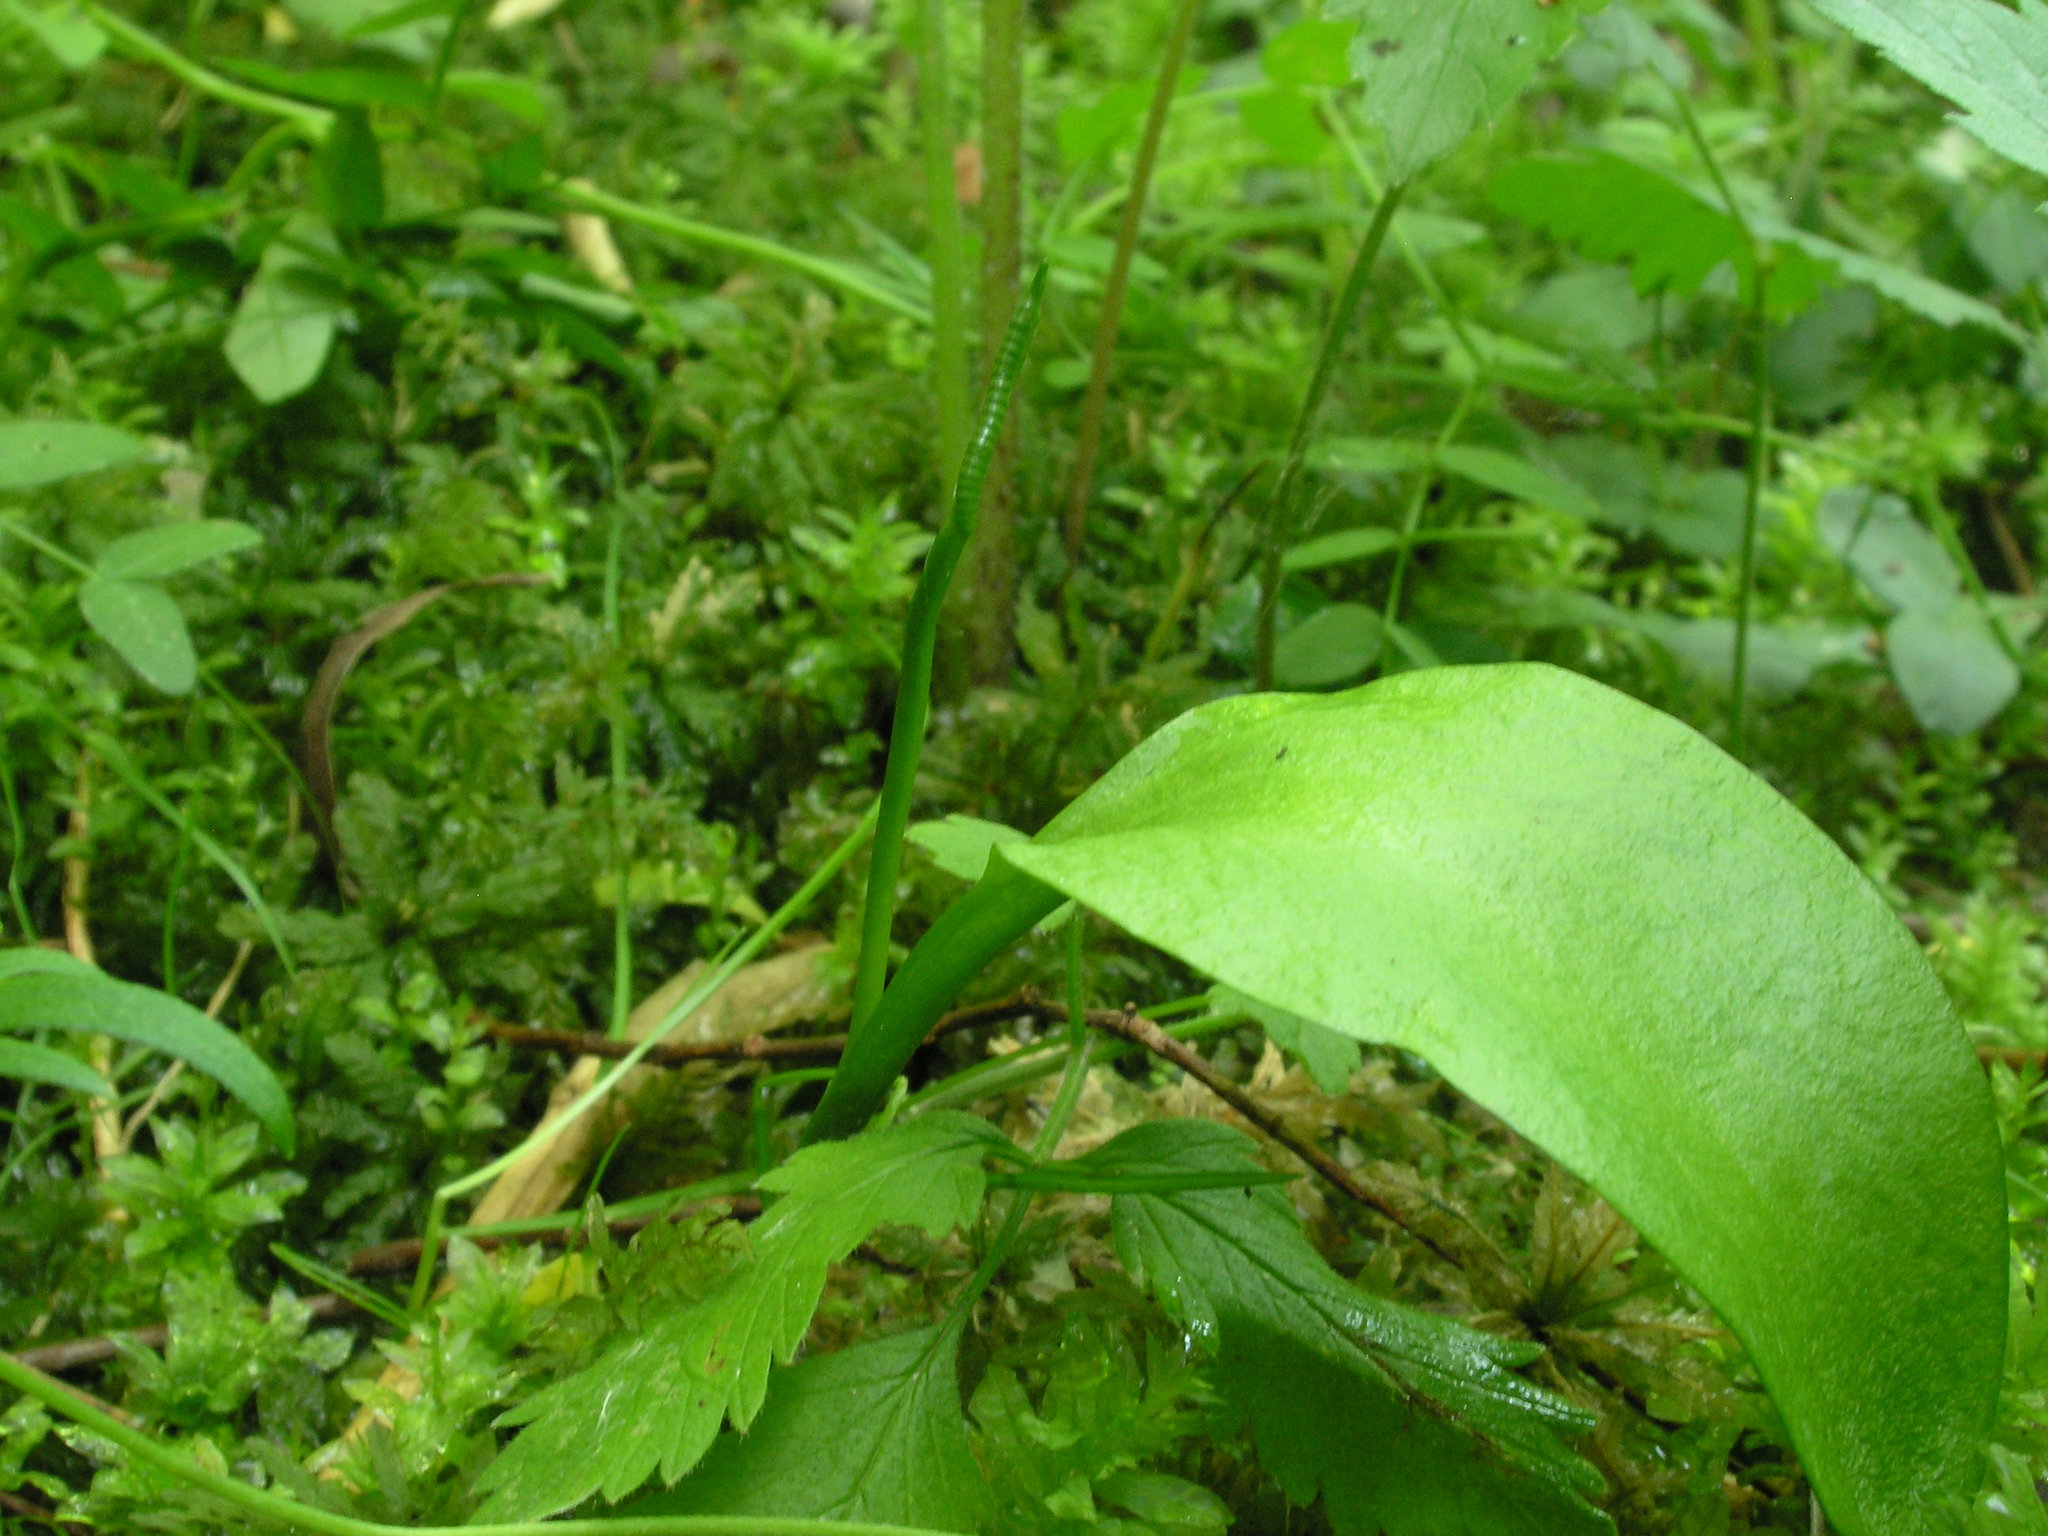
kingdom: Plantae
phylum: Tracheophyta
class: Polypodiopsida
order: Ophioglossales
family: Ophioglossaceae
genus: Ophioglossum
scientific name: Ophioglossum vulgatum
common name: Adder's-tongue
